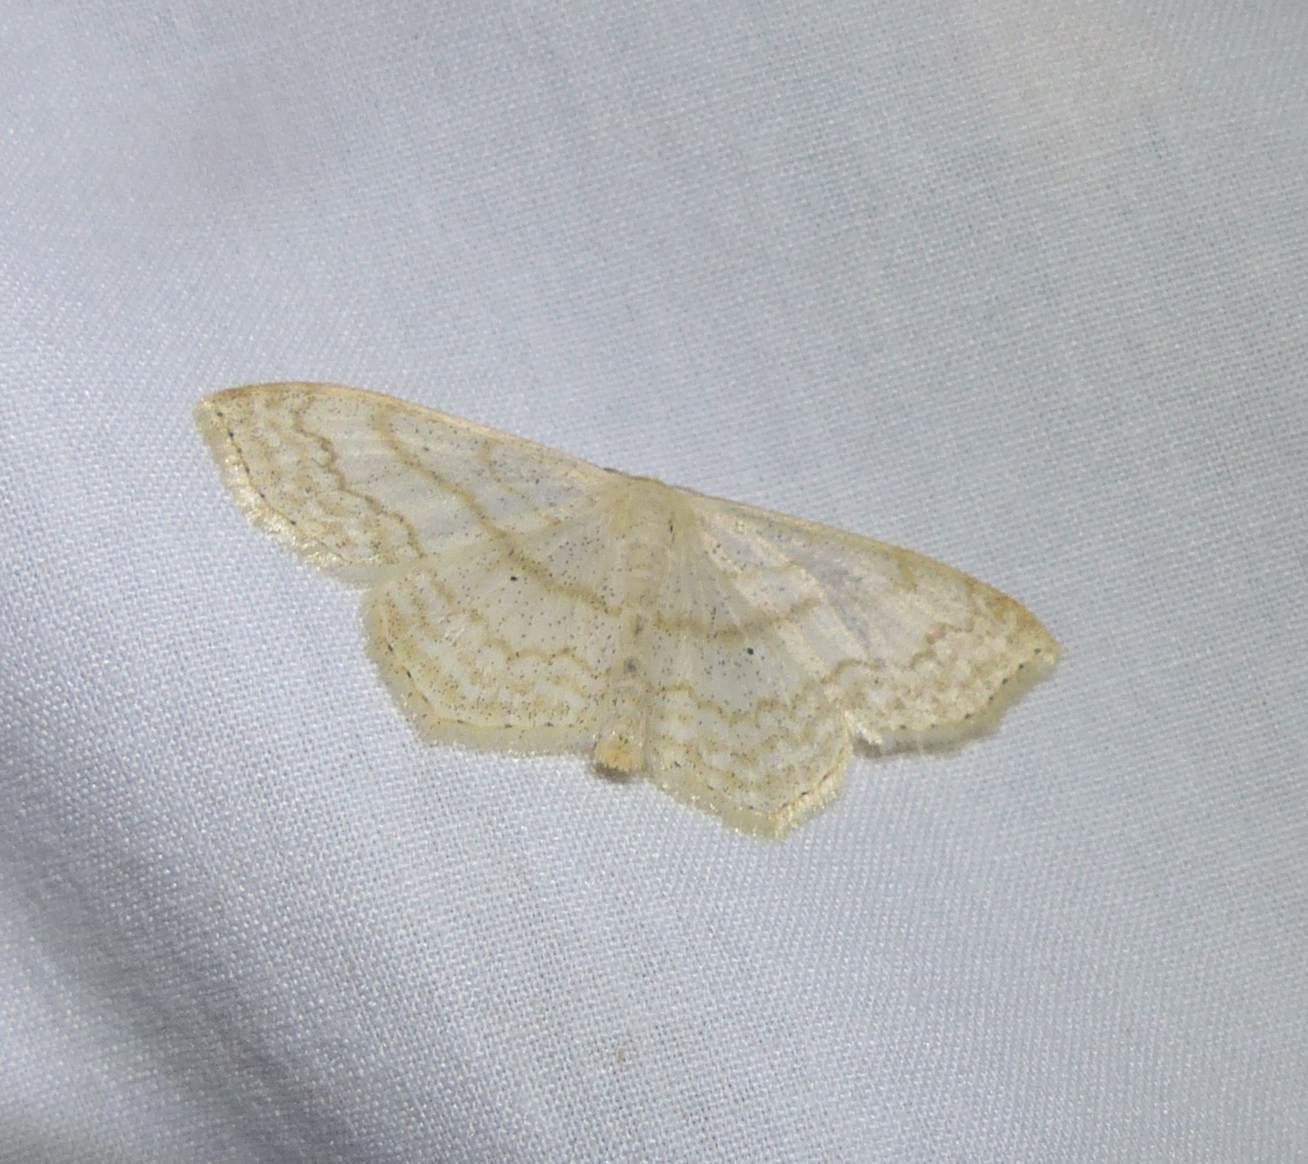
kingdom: Animalia
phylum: Arthropoda
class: Insecta
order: Lepidoptera
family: Geometridae
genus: Scopula
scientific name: Scopula limboundata
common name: Large lace border
